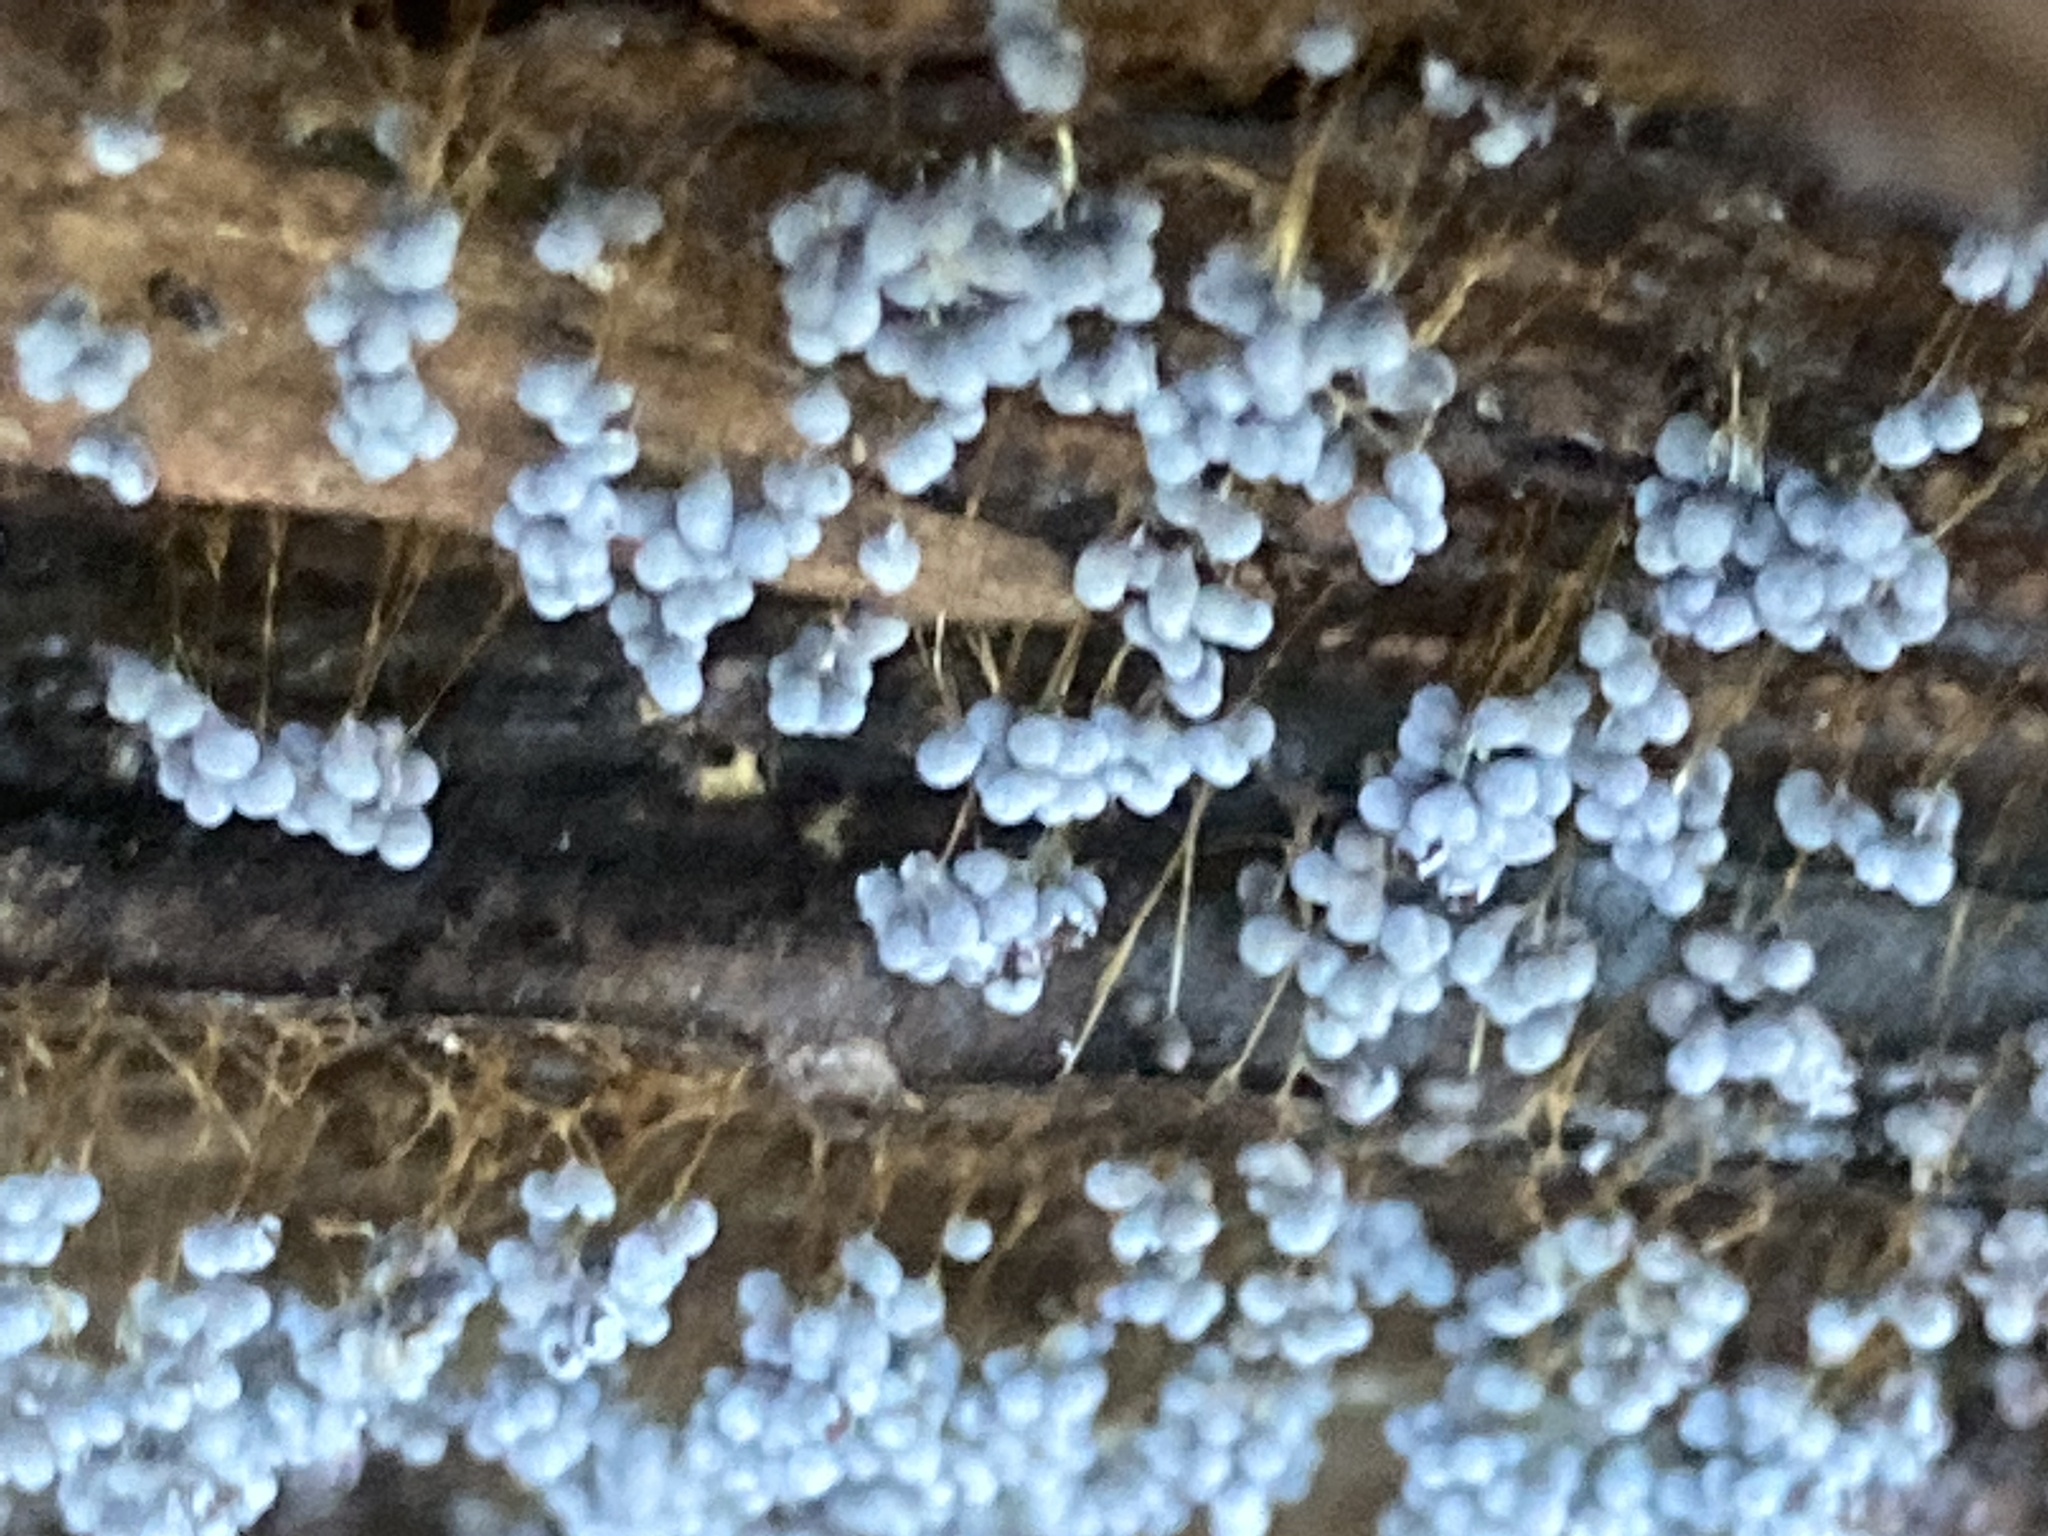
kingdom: Protozoa
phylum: Mycetozoa
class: Myxomycetes
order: Physarales
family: Physaraceae
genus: Badhamia
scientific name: Badhamia utricularis
